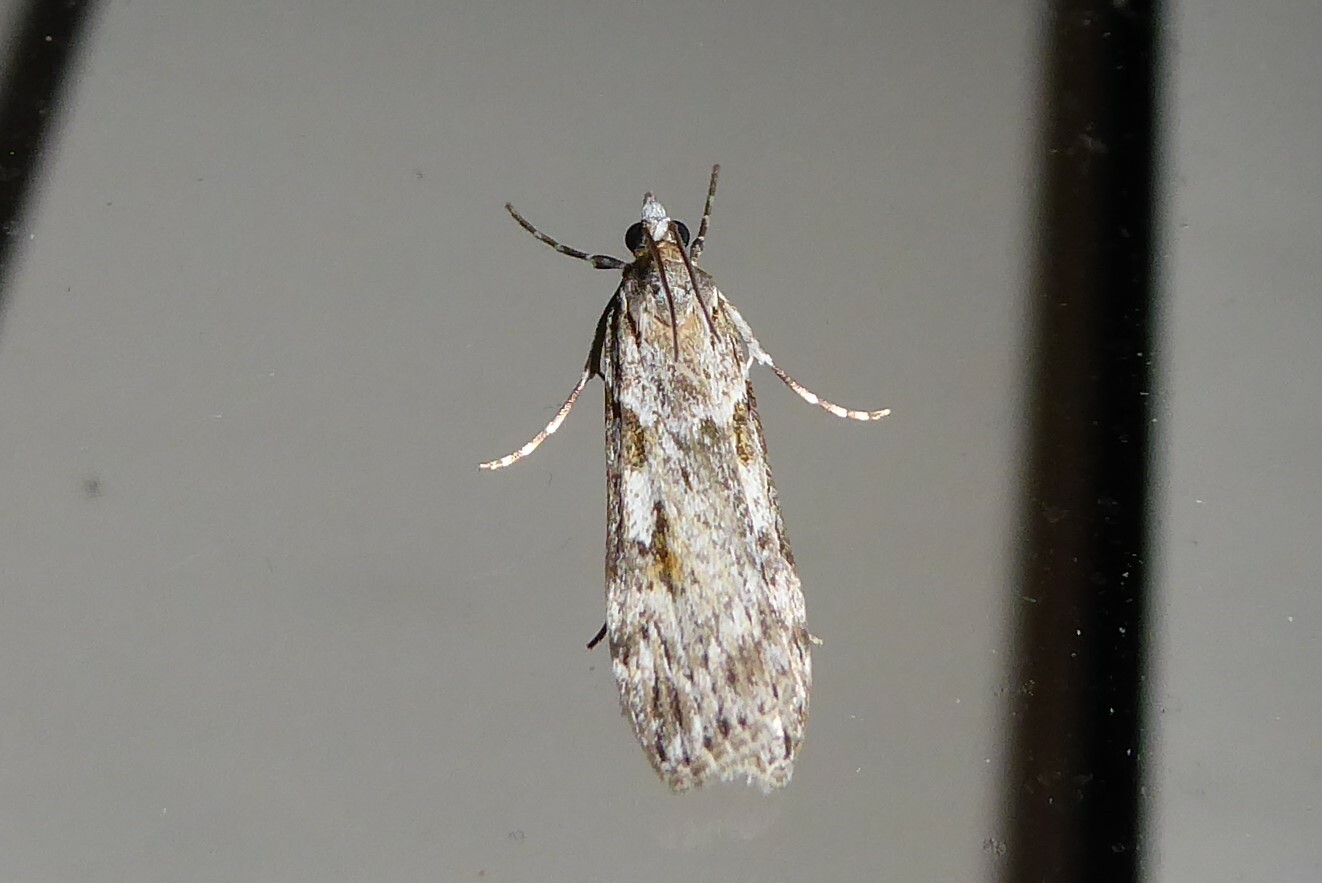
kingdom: Animalia
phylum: Arthropoda
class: Insecta
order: Lepidoptera
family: Crambidae
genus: Scoparia
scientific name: Scoparia halopis
